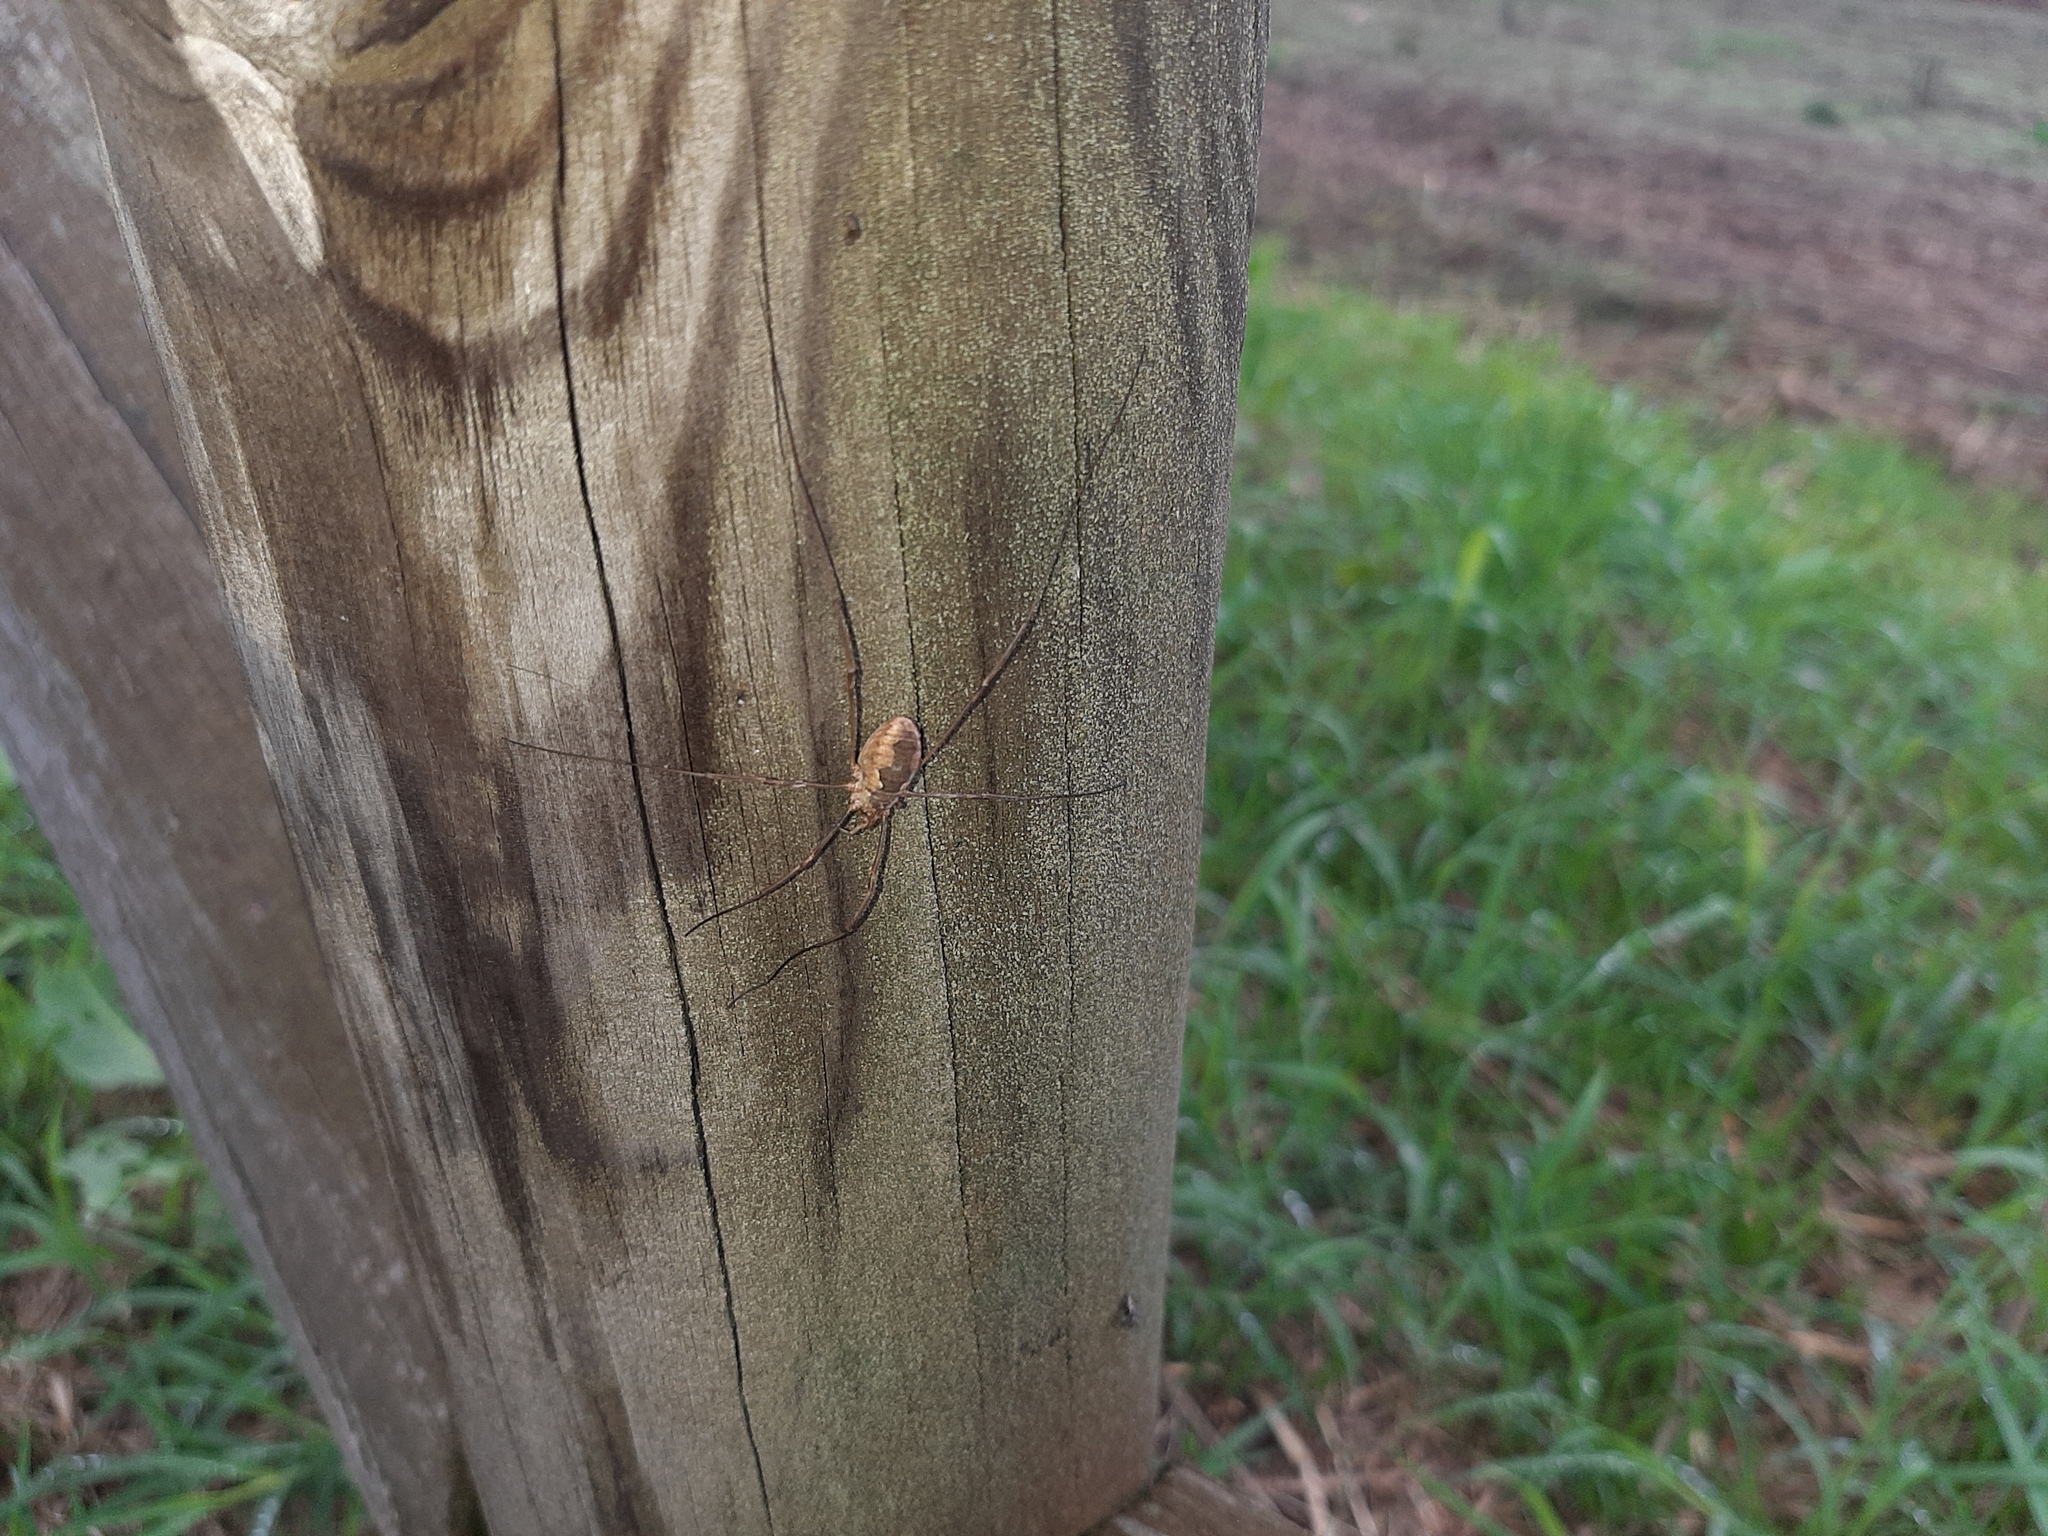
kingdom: Animalia
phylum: Arthropoda
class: Arachnida
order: Opiliones
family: Phalangiidae
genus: Phalangium
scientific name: Phalangium opilio
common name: Daddy longleg
